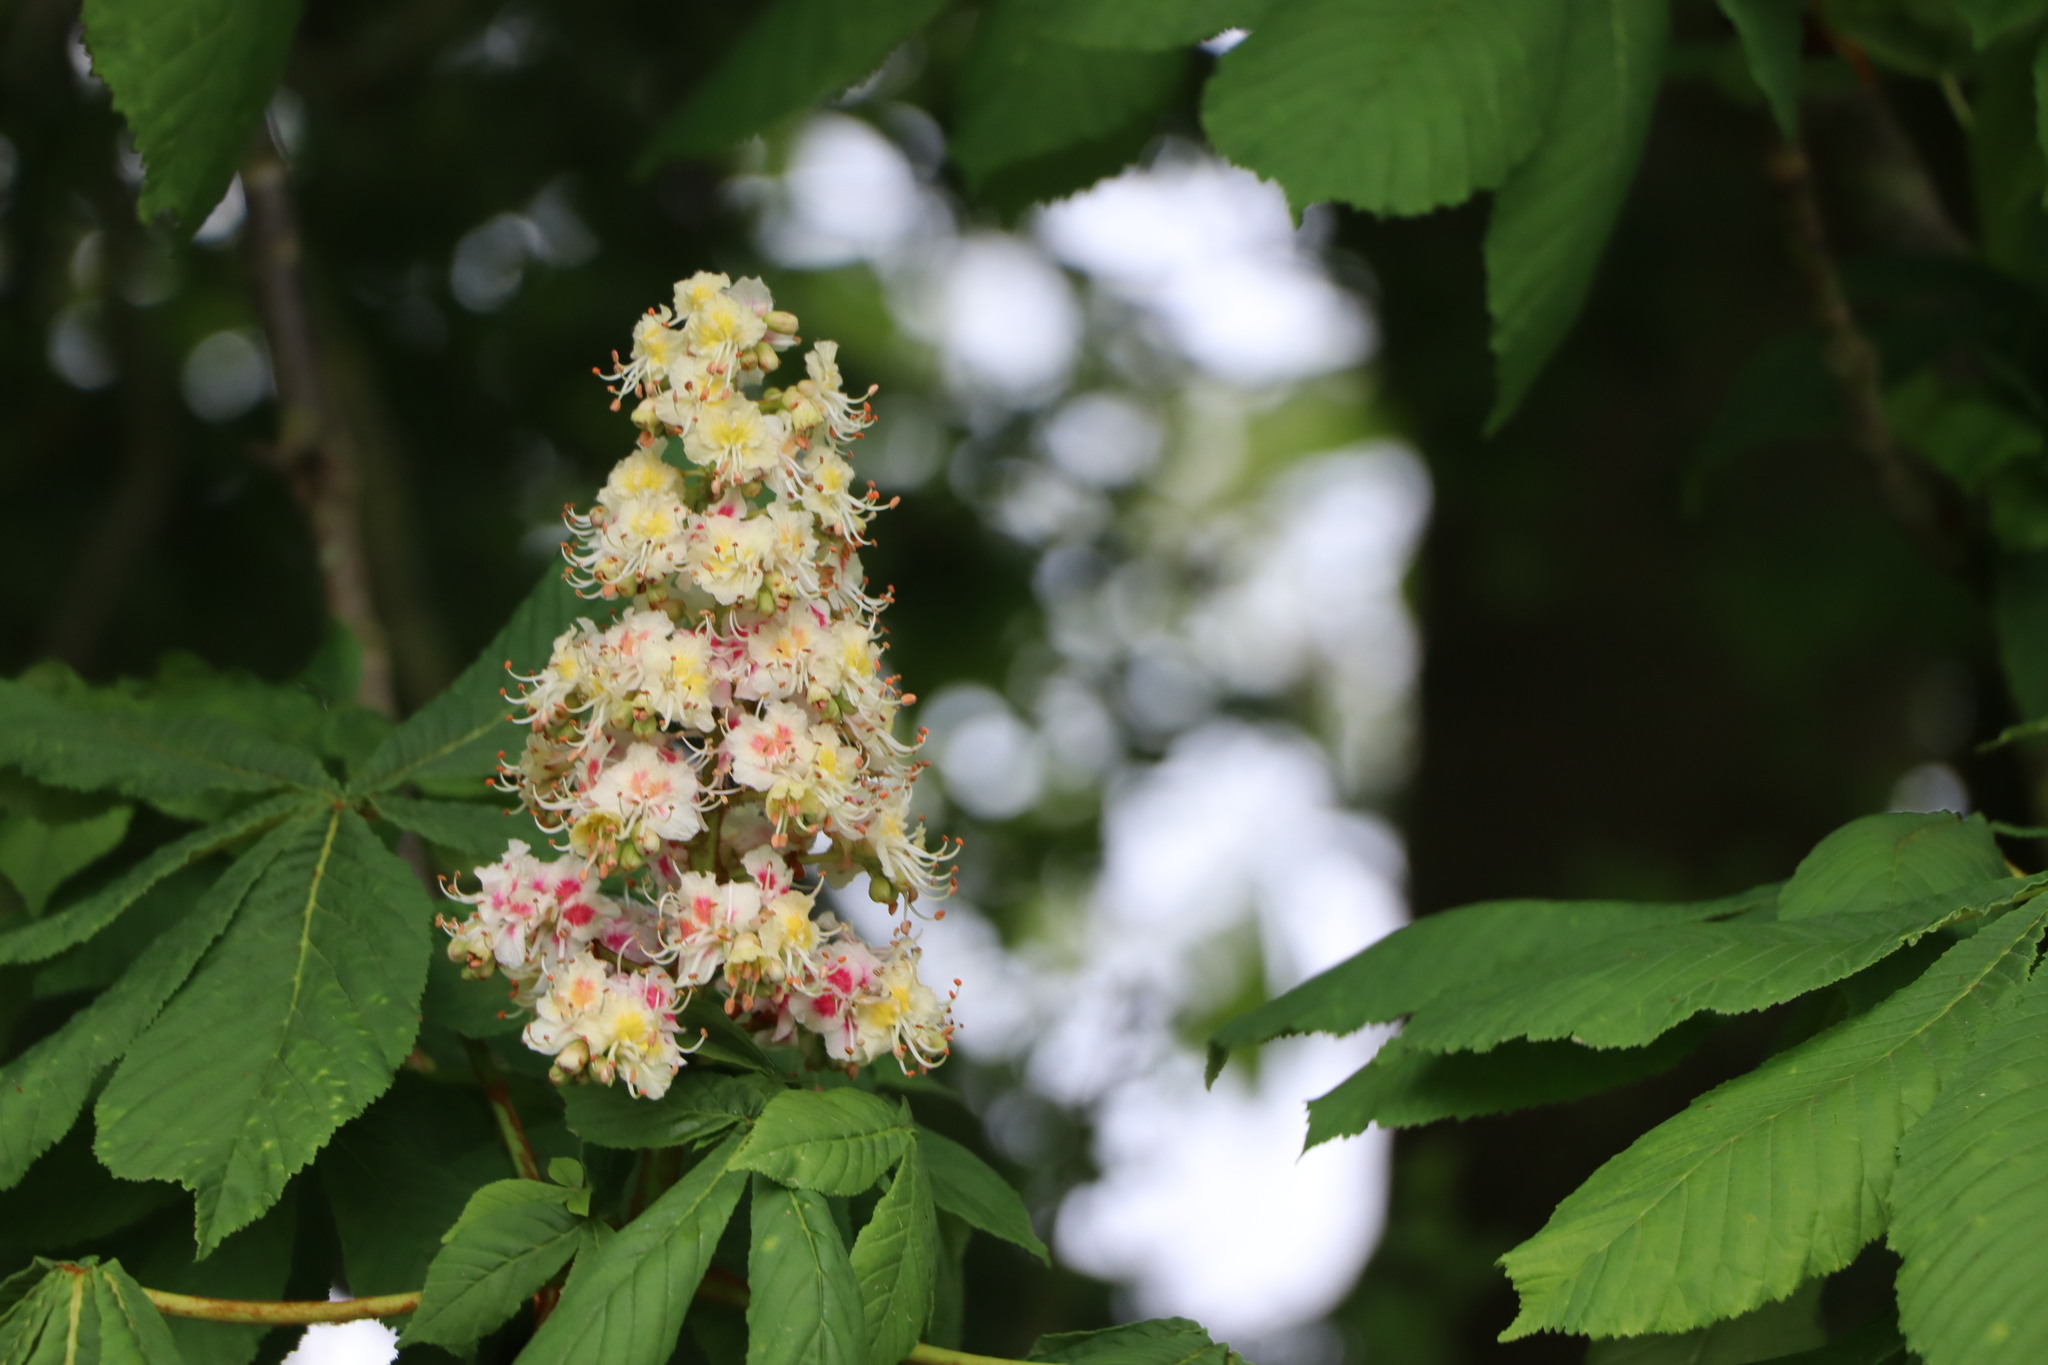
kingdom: Plantae
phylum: Tracheophyta
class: Magnoliopsida
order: Sapindales
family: Sapindaceae
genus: Aesculus
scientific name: Aesculus hippocastanum
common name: Horse-chestnut
